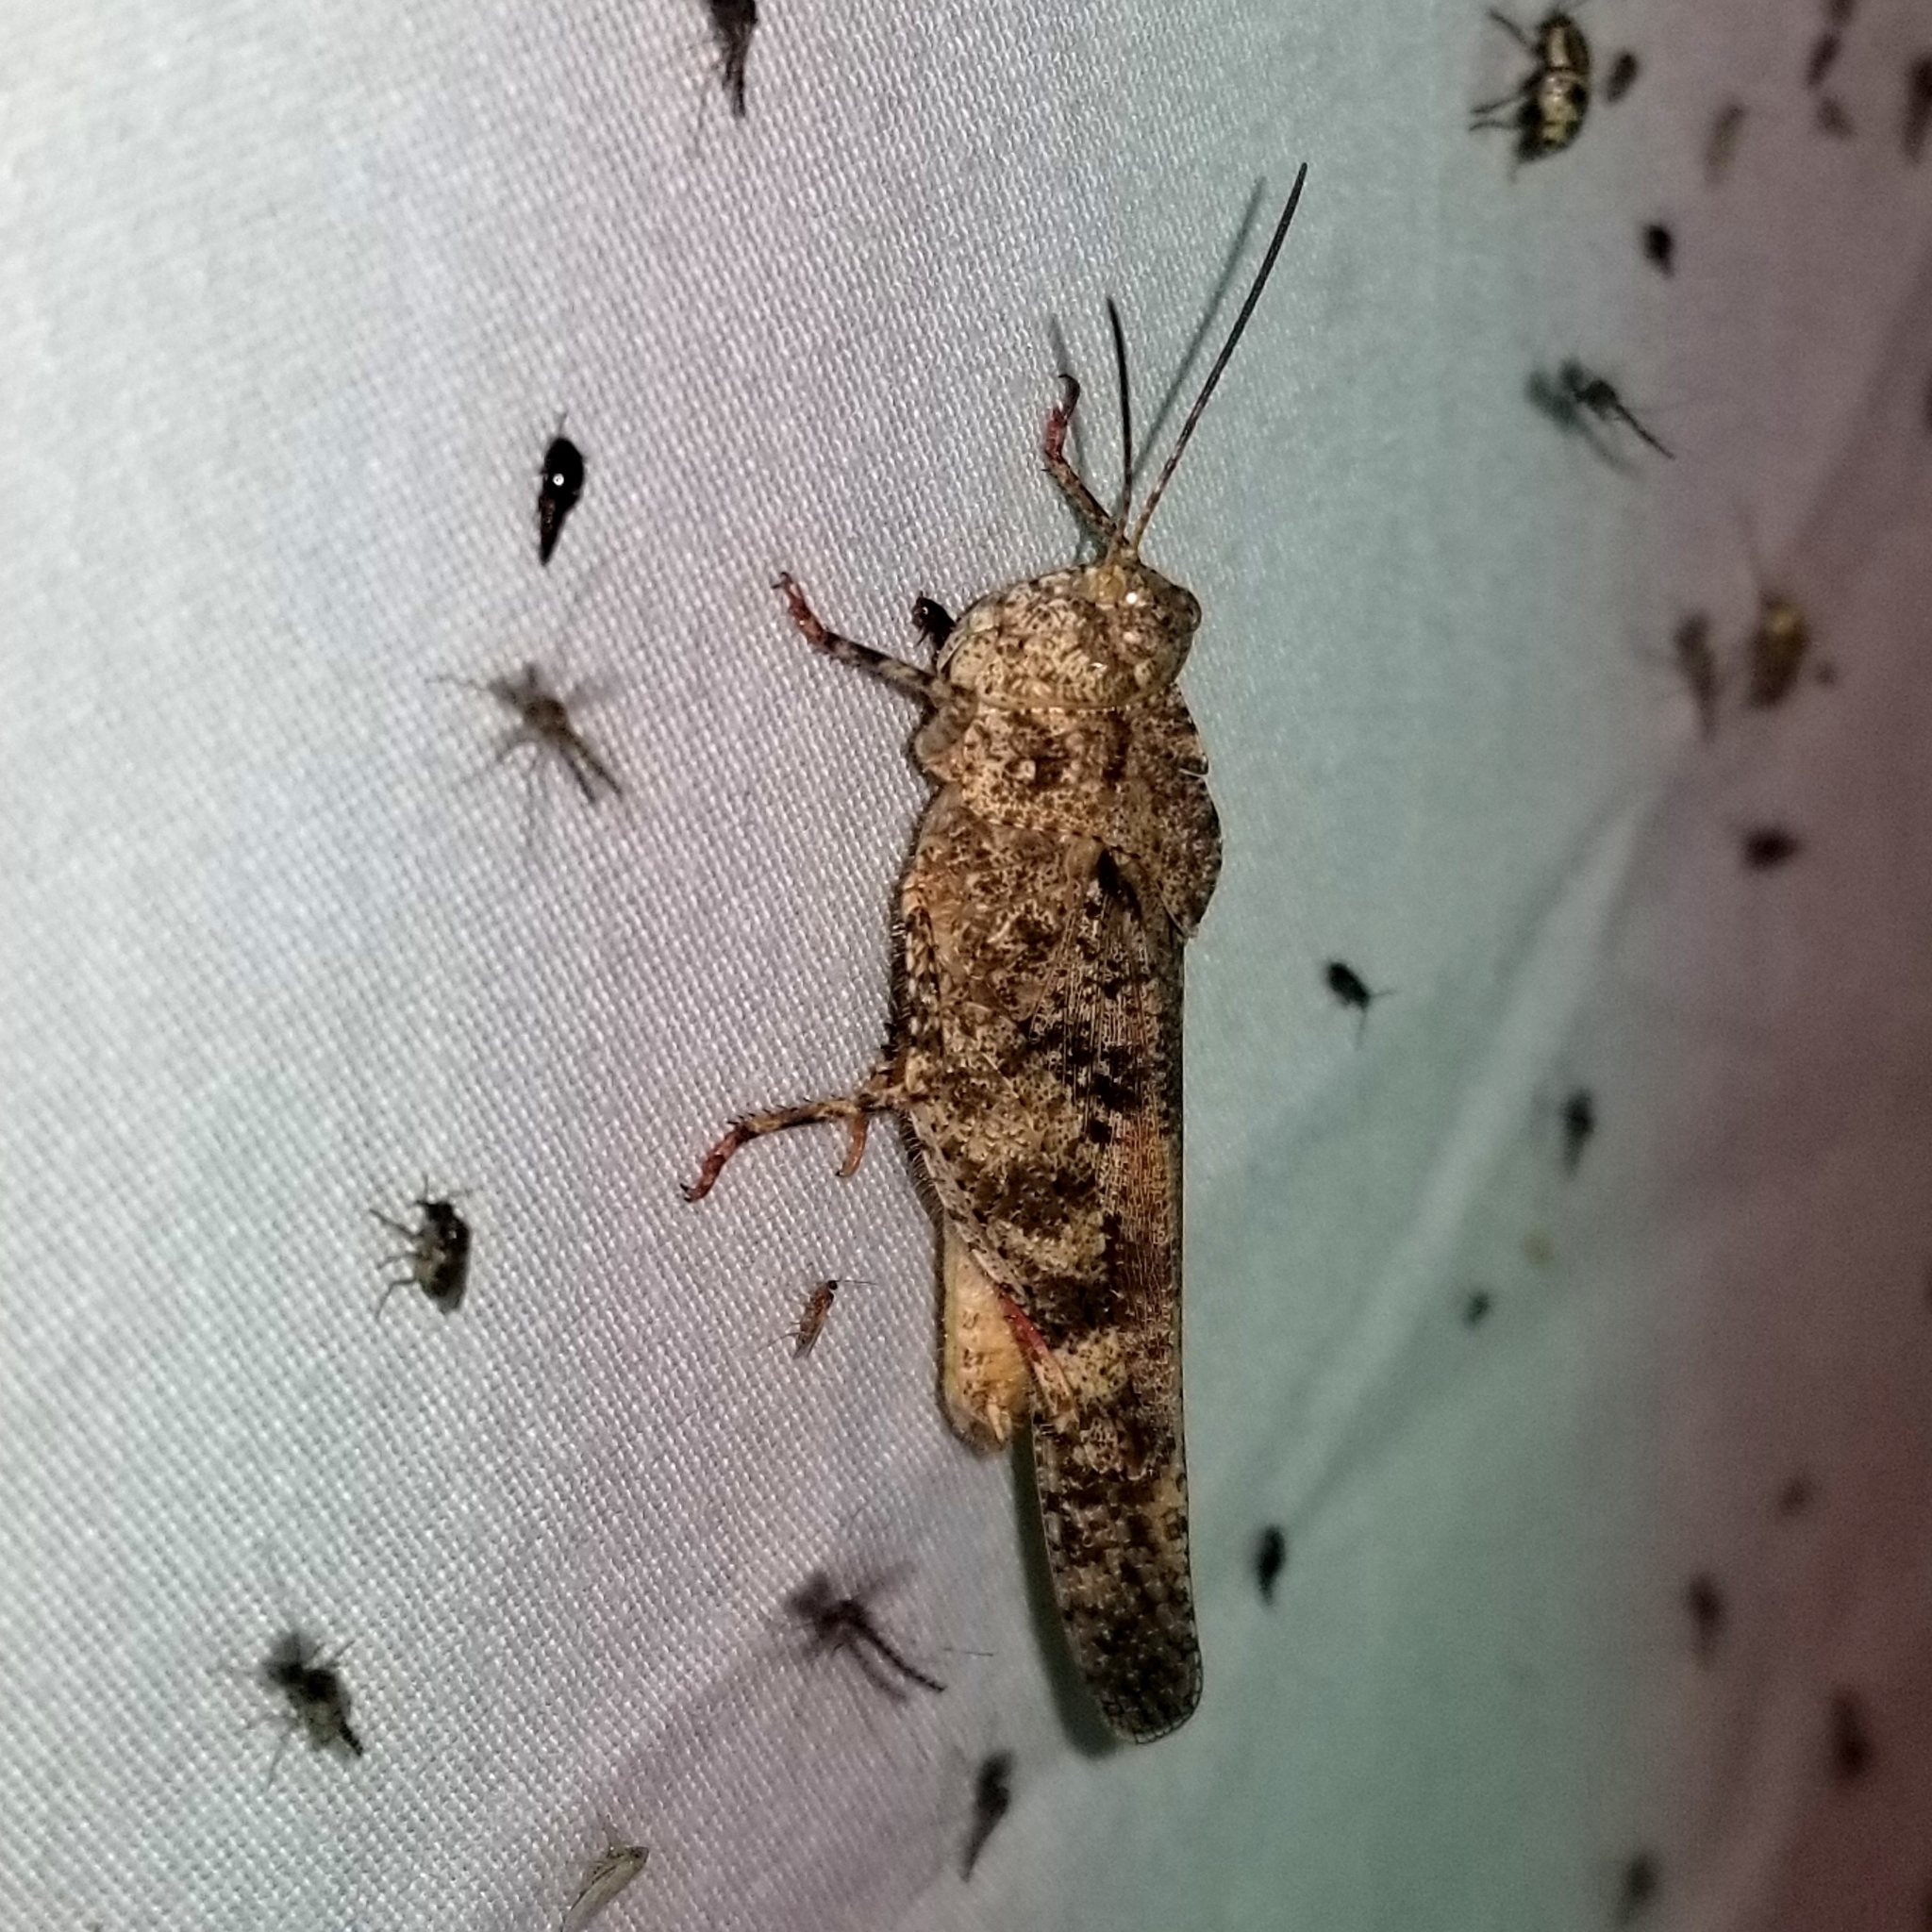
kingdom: Animalia
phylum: Arthropoda
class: Insecta
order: Orthoptera
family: Acrididae
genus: Spharagemon
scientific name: Spharagemon cristatum
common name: Ridgeback sand grasshopper
